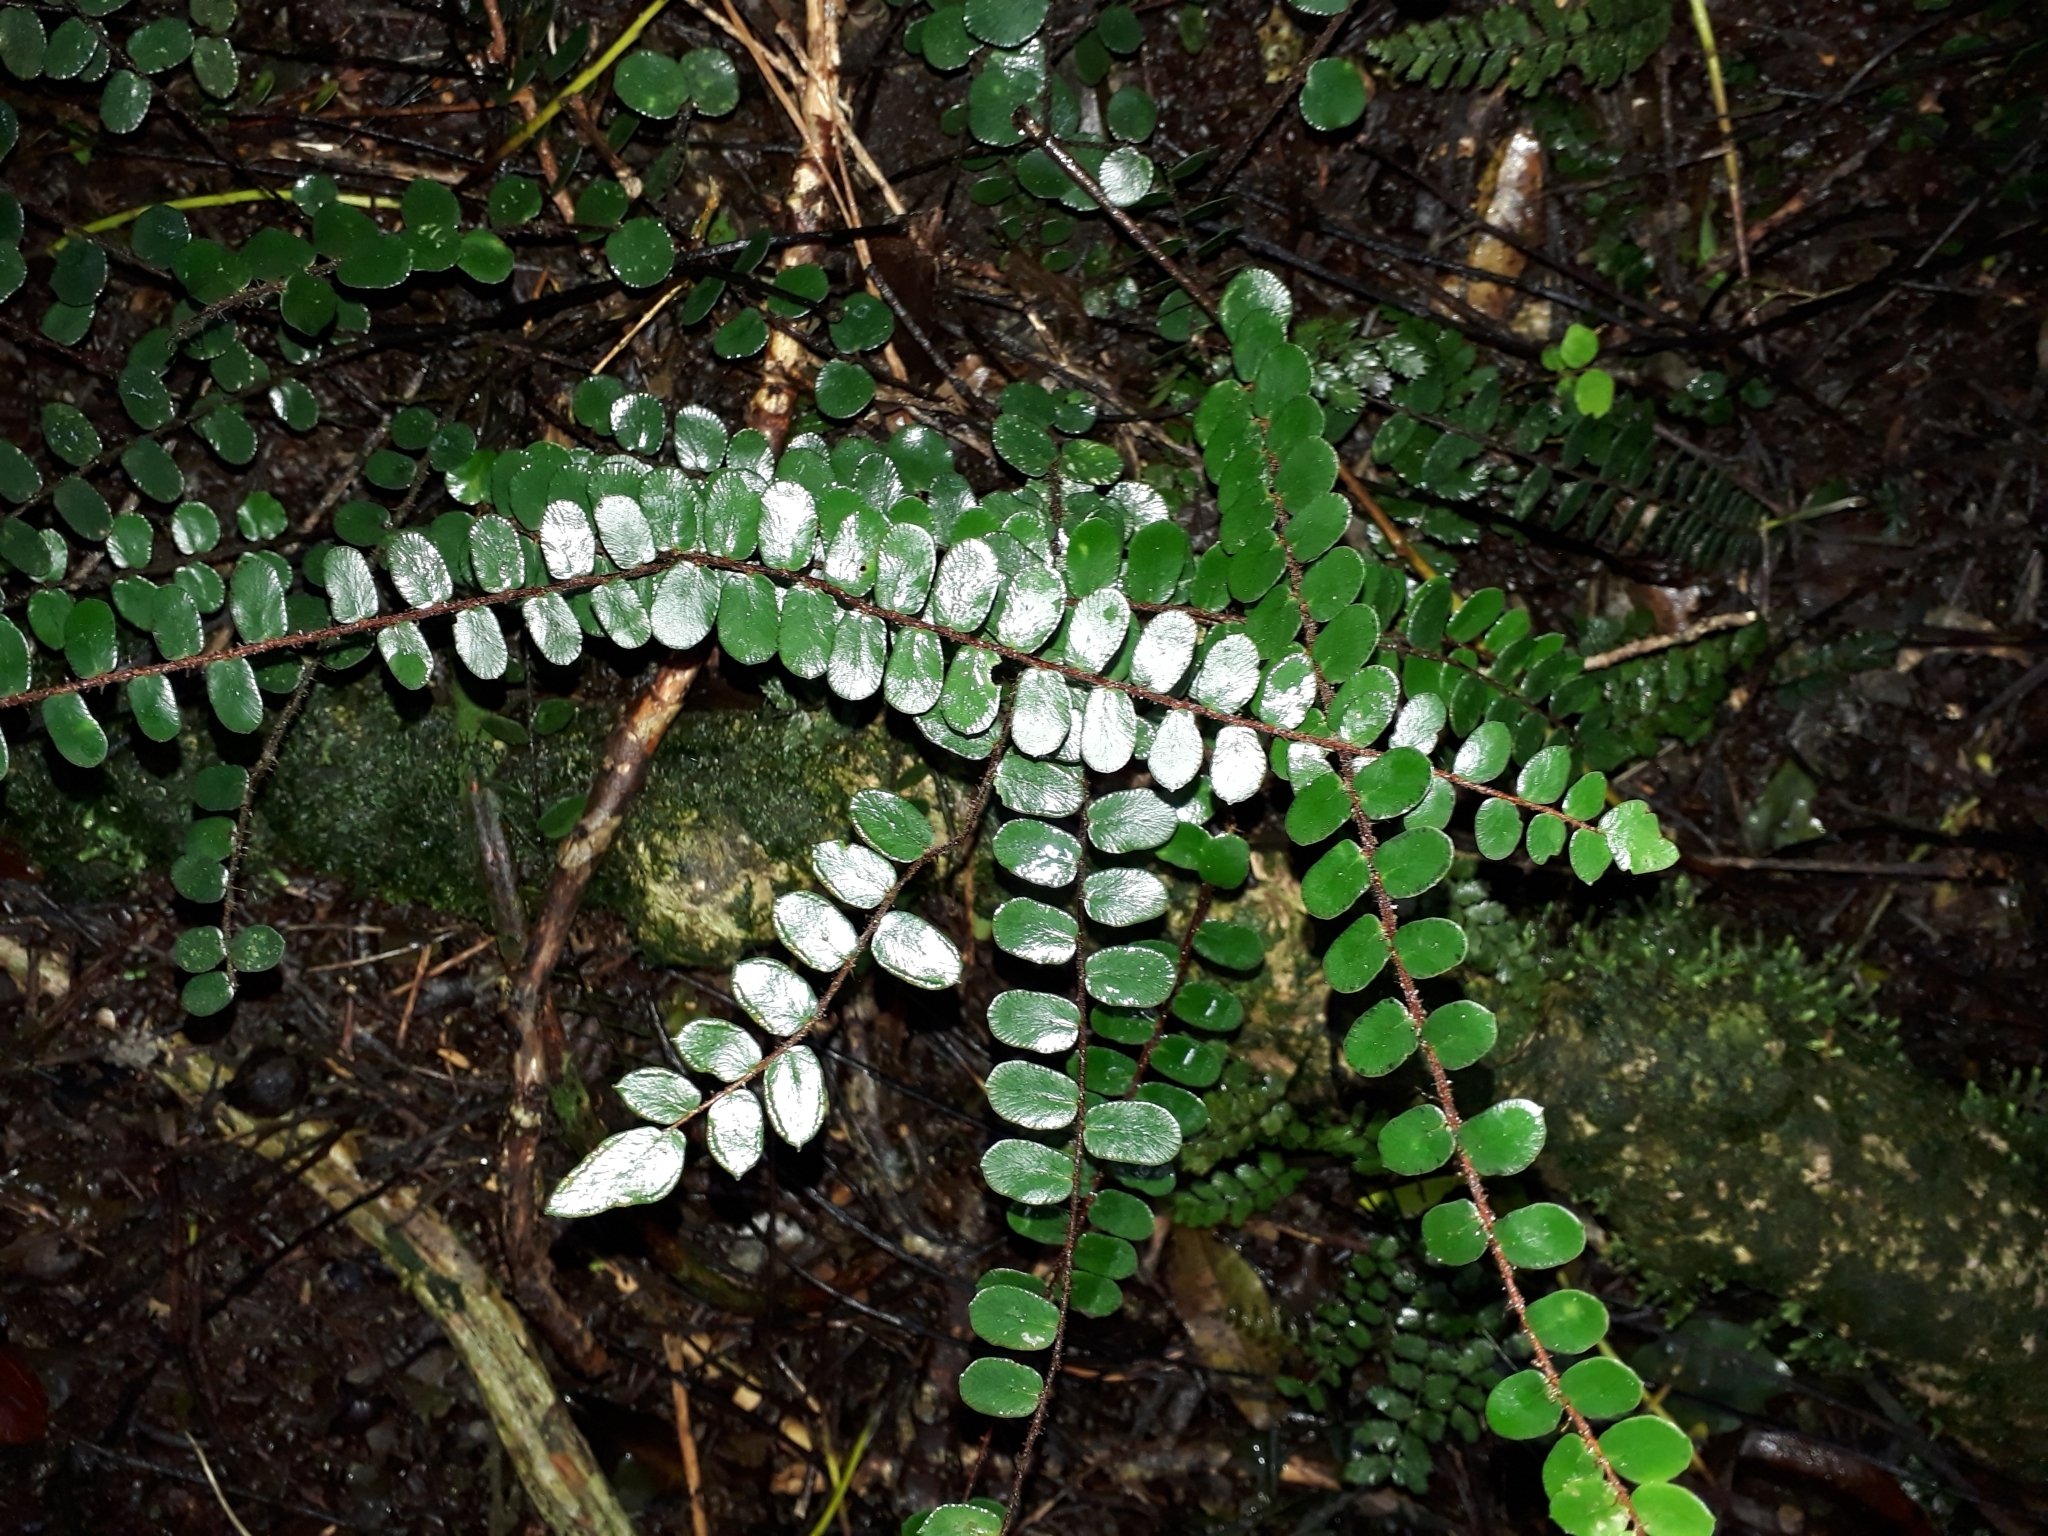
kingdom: Plantae
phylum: Tracheophyta
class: Polypodiopsida
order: Polypodiales
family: Pteridaceae
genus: Pellaea
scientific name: Pellaea rotundifolia
